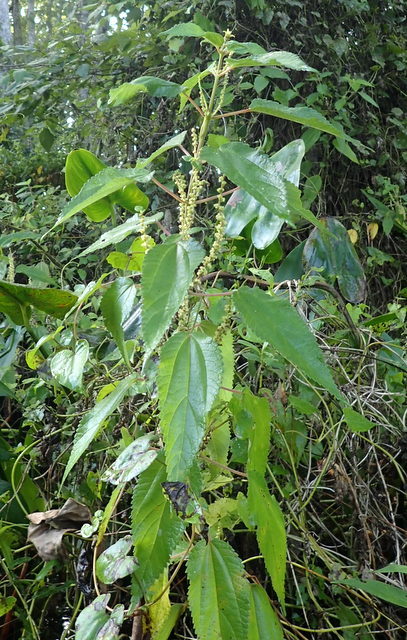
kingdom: Plantae
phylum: Tracheophyta
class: Magnoliopsida
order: Rosales
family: Urticaceae
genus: Boehmeria
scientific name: Boehmeria cylindrica
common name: Bog-hemp
